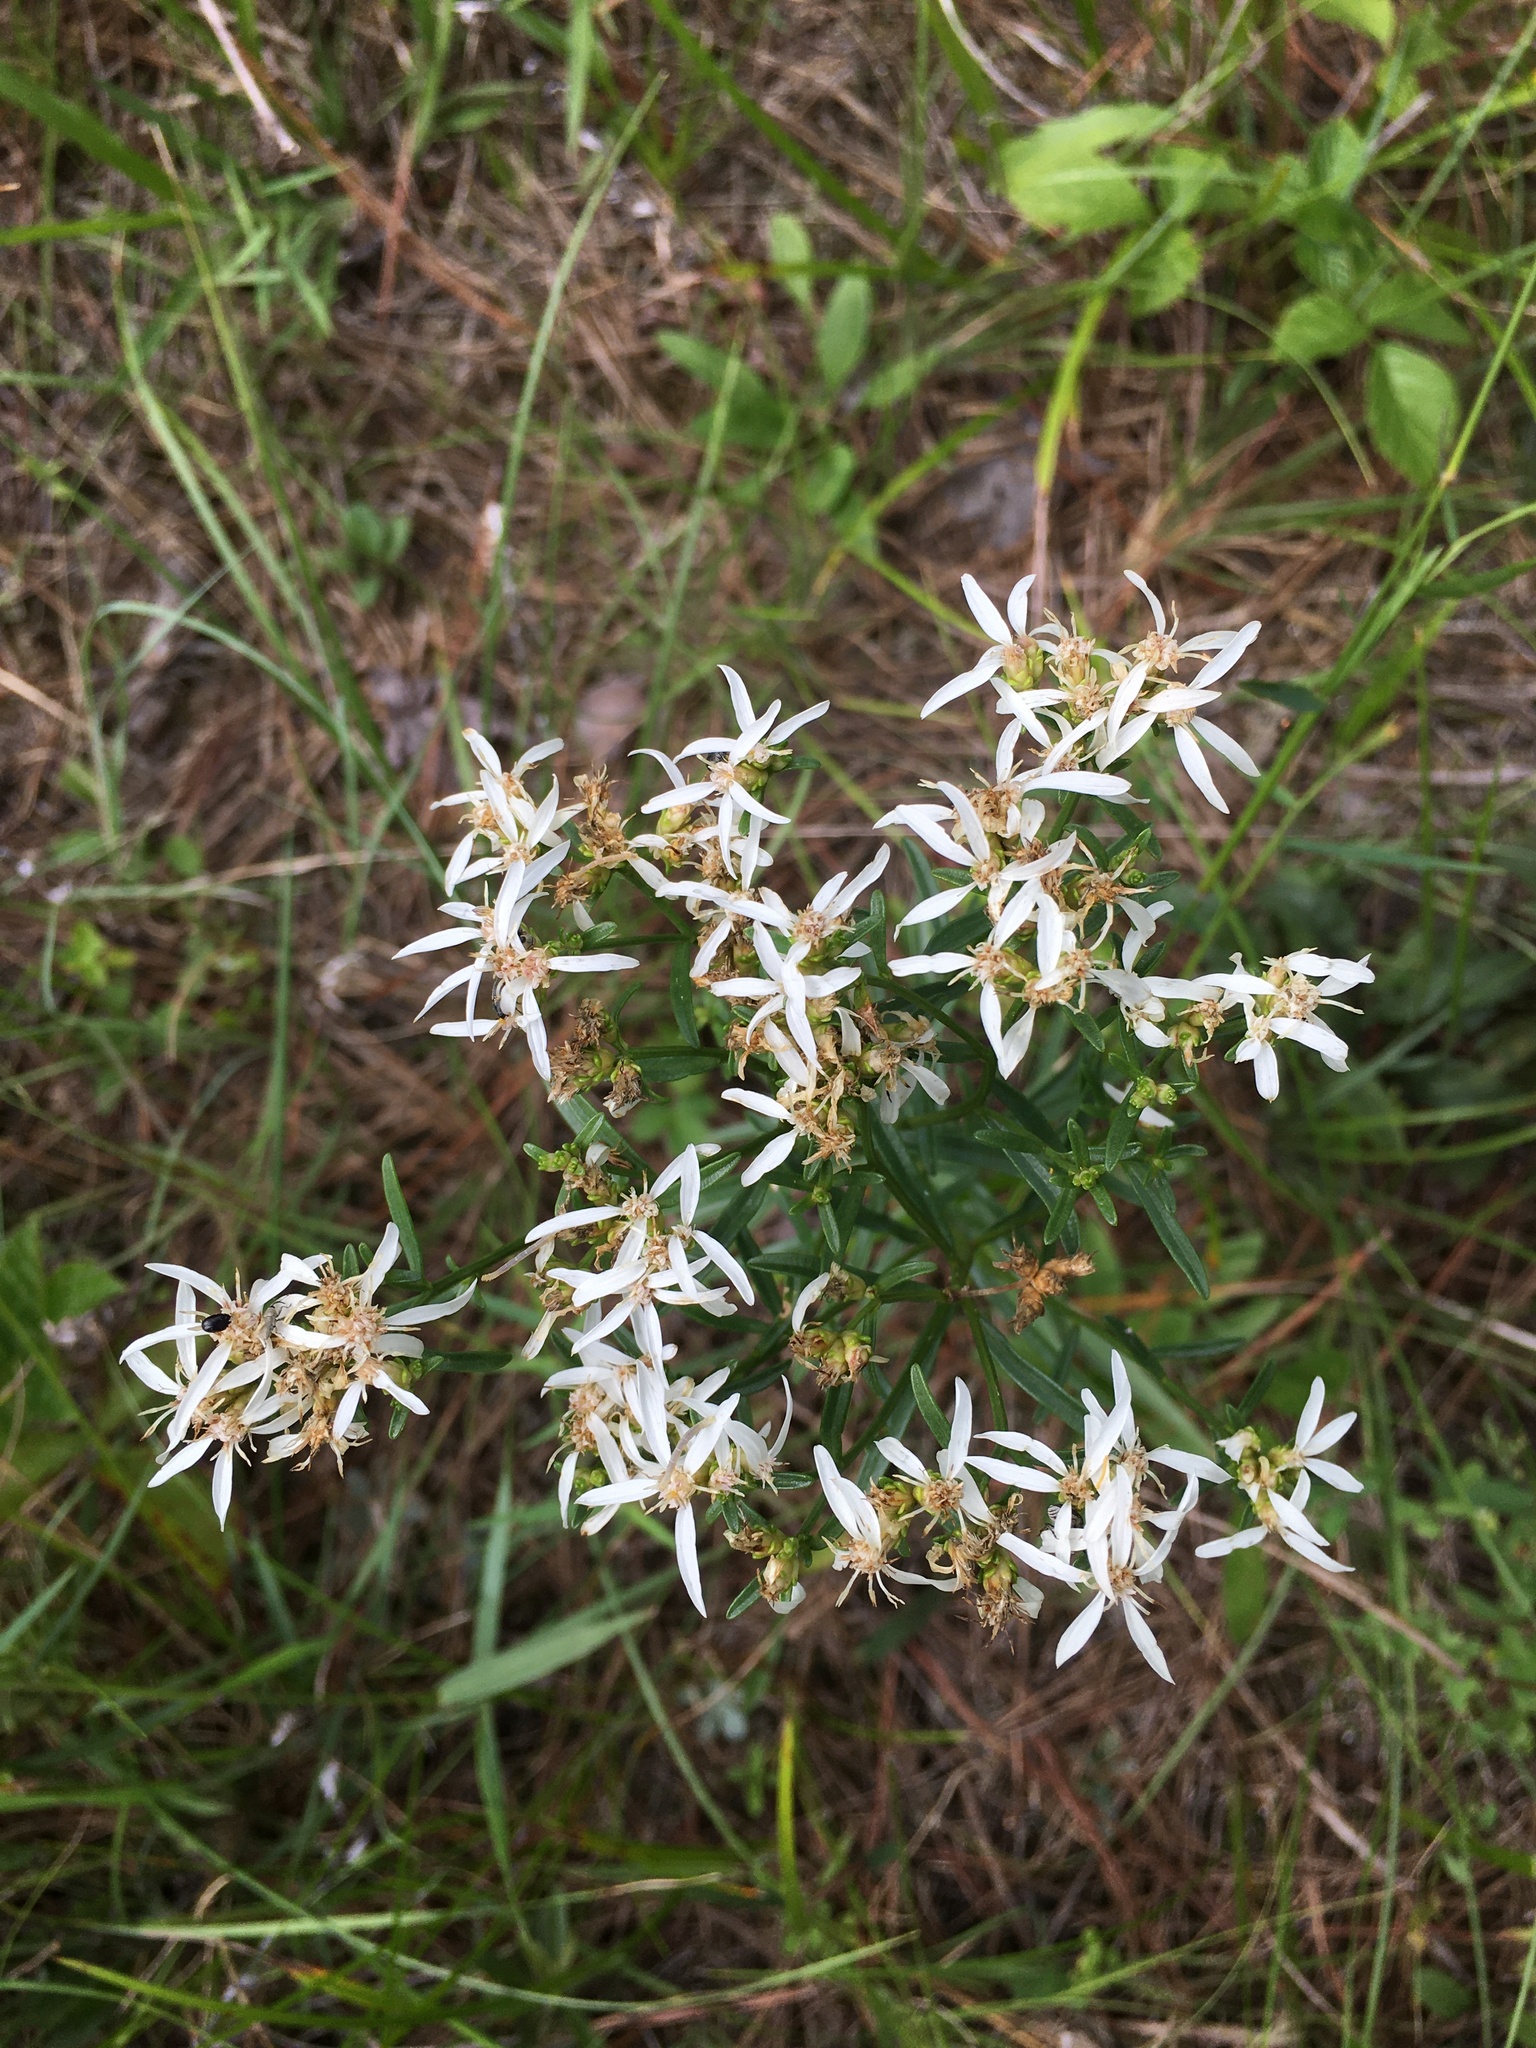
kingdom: Plantae
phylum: Tracheophyta
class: Magnoliopsida
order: Asterales
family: Asteraceae
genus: Sericocarpus
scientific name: Sericocarpus linifolius
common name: Narrow-leaf aster
